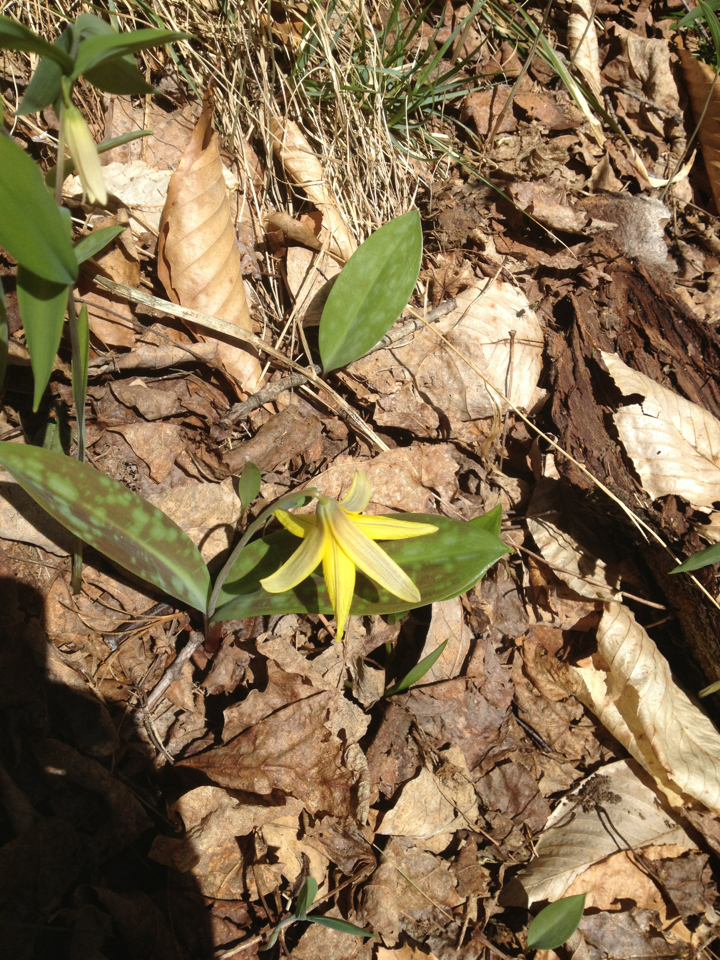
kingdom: Plantae
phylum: Tracheophyta
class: Liliopsida
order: Liliales
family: Liliaceae
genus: Erythronium
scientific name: Erythronium americanum
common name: Yellow adder's-tongue
